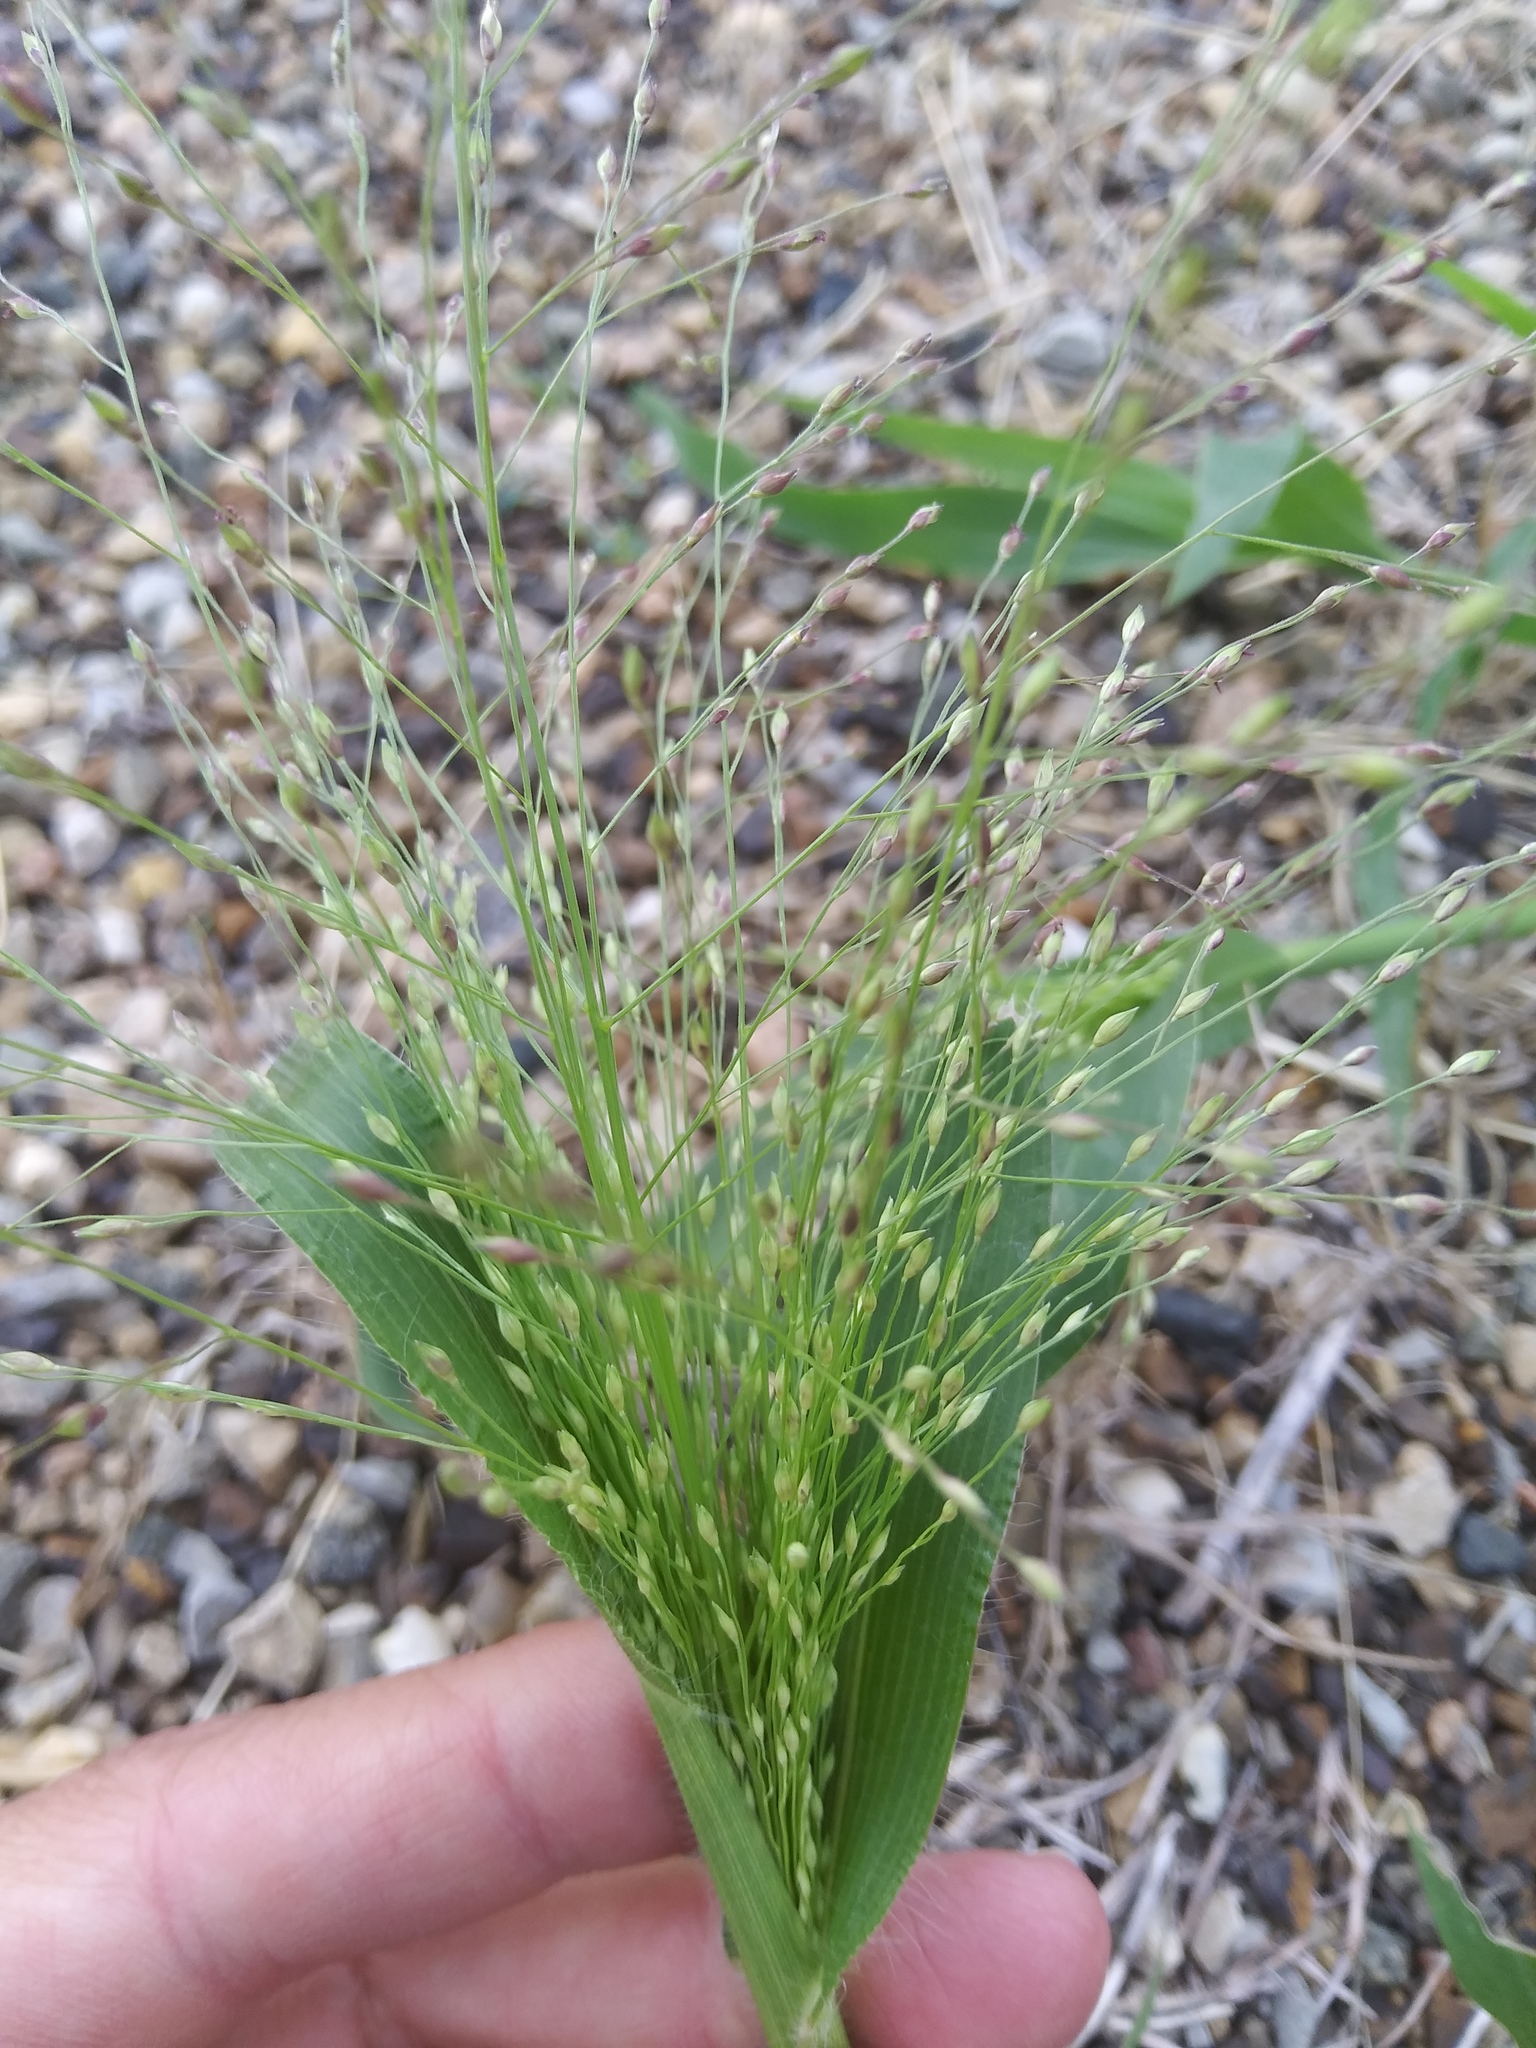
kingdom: Plantae
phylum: Tracheophyta
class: Liliopsida
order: Poales
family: Poaceae
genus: Panicum
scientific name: Panicum capillare
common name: Witch-grass
